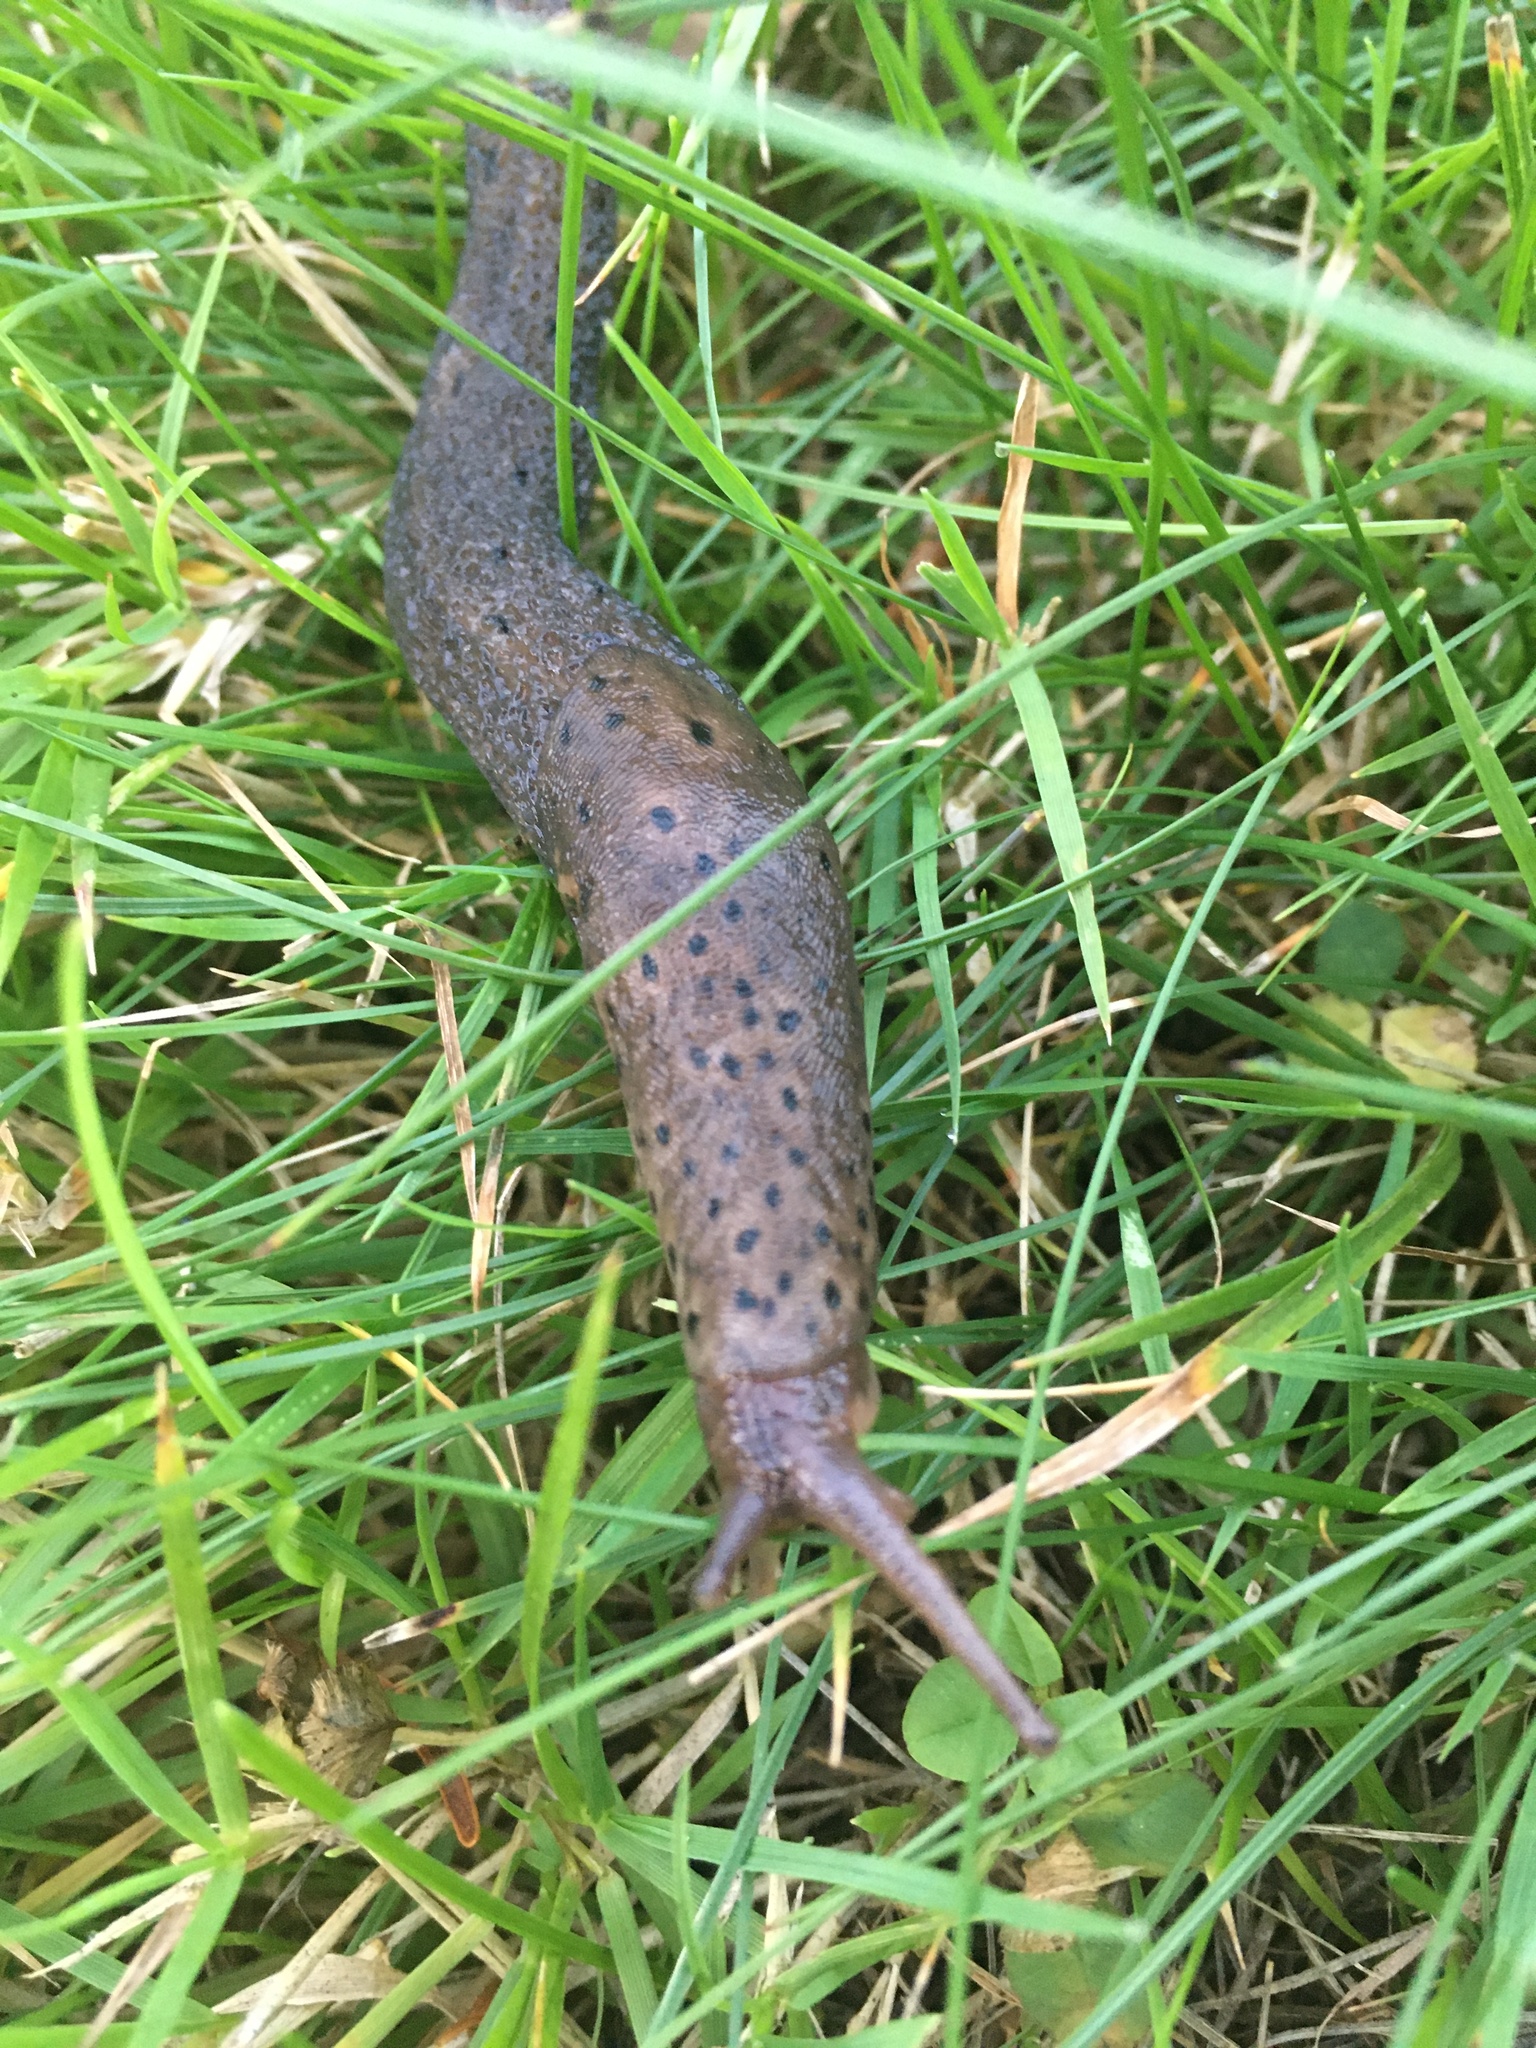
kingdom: Animalia
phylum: Mollusca
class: Gastropoda
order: Stylommatophora
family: Limacidae
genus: Limax
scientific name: Limax maximus
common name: Great grey slug
